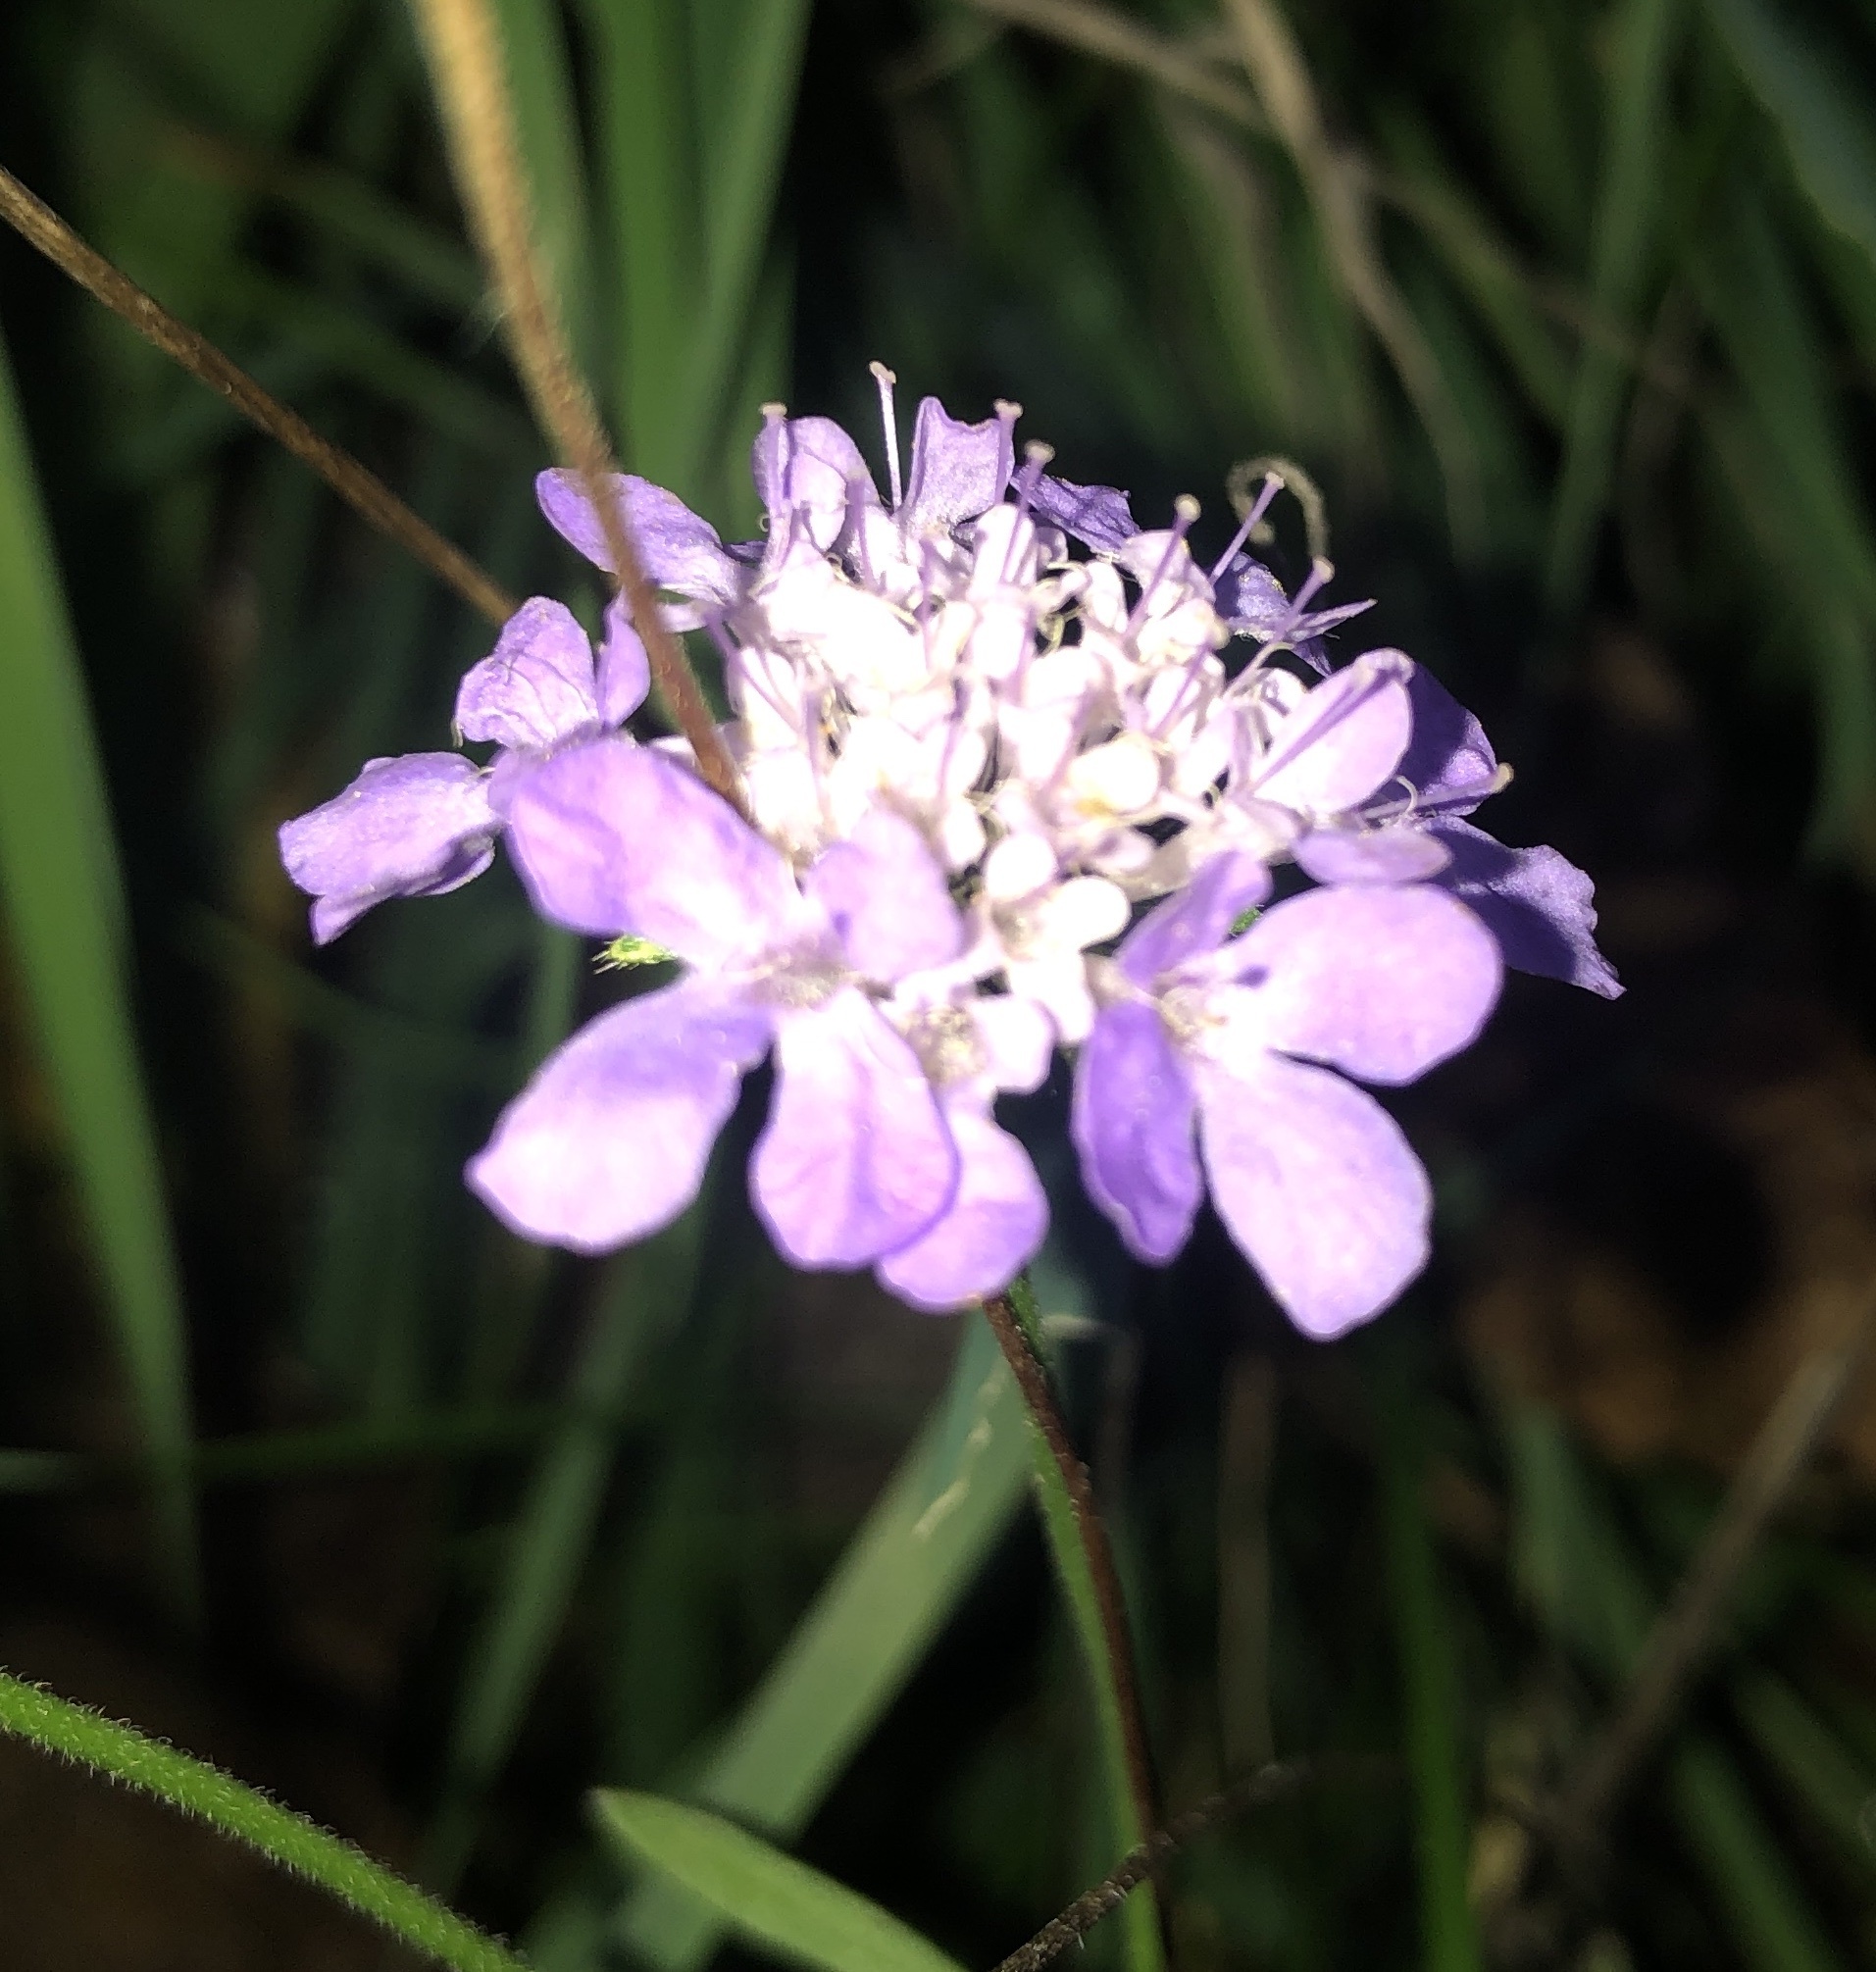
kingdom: Plantae
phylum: Tracheophyta
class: Magnoliopsida
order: Dipsacales
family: Caprifoliaceae
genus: Scabiosa
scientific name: Scabiosa columbaria
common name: Small scabious
